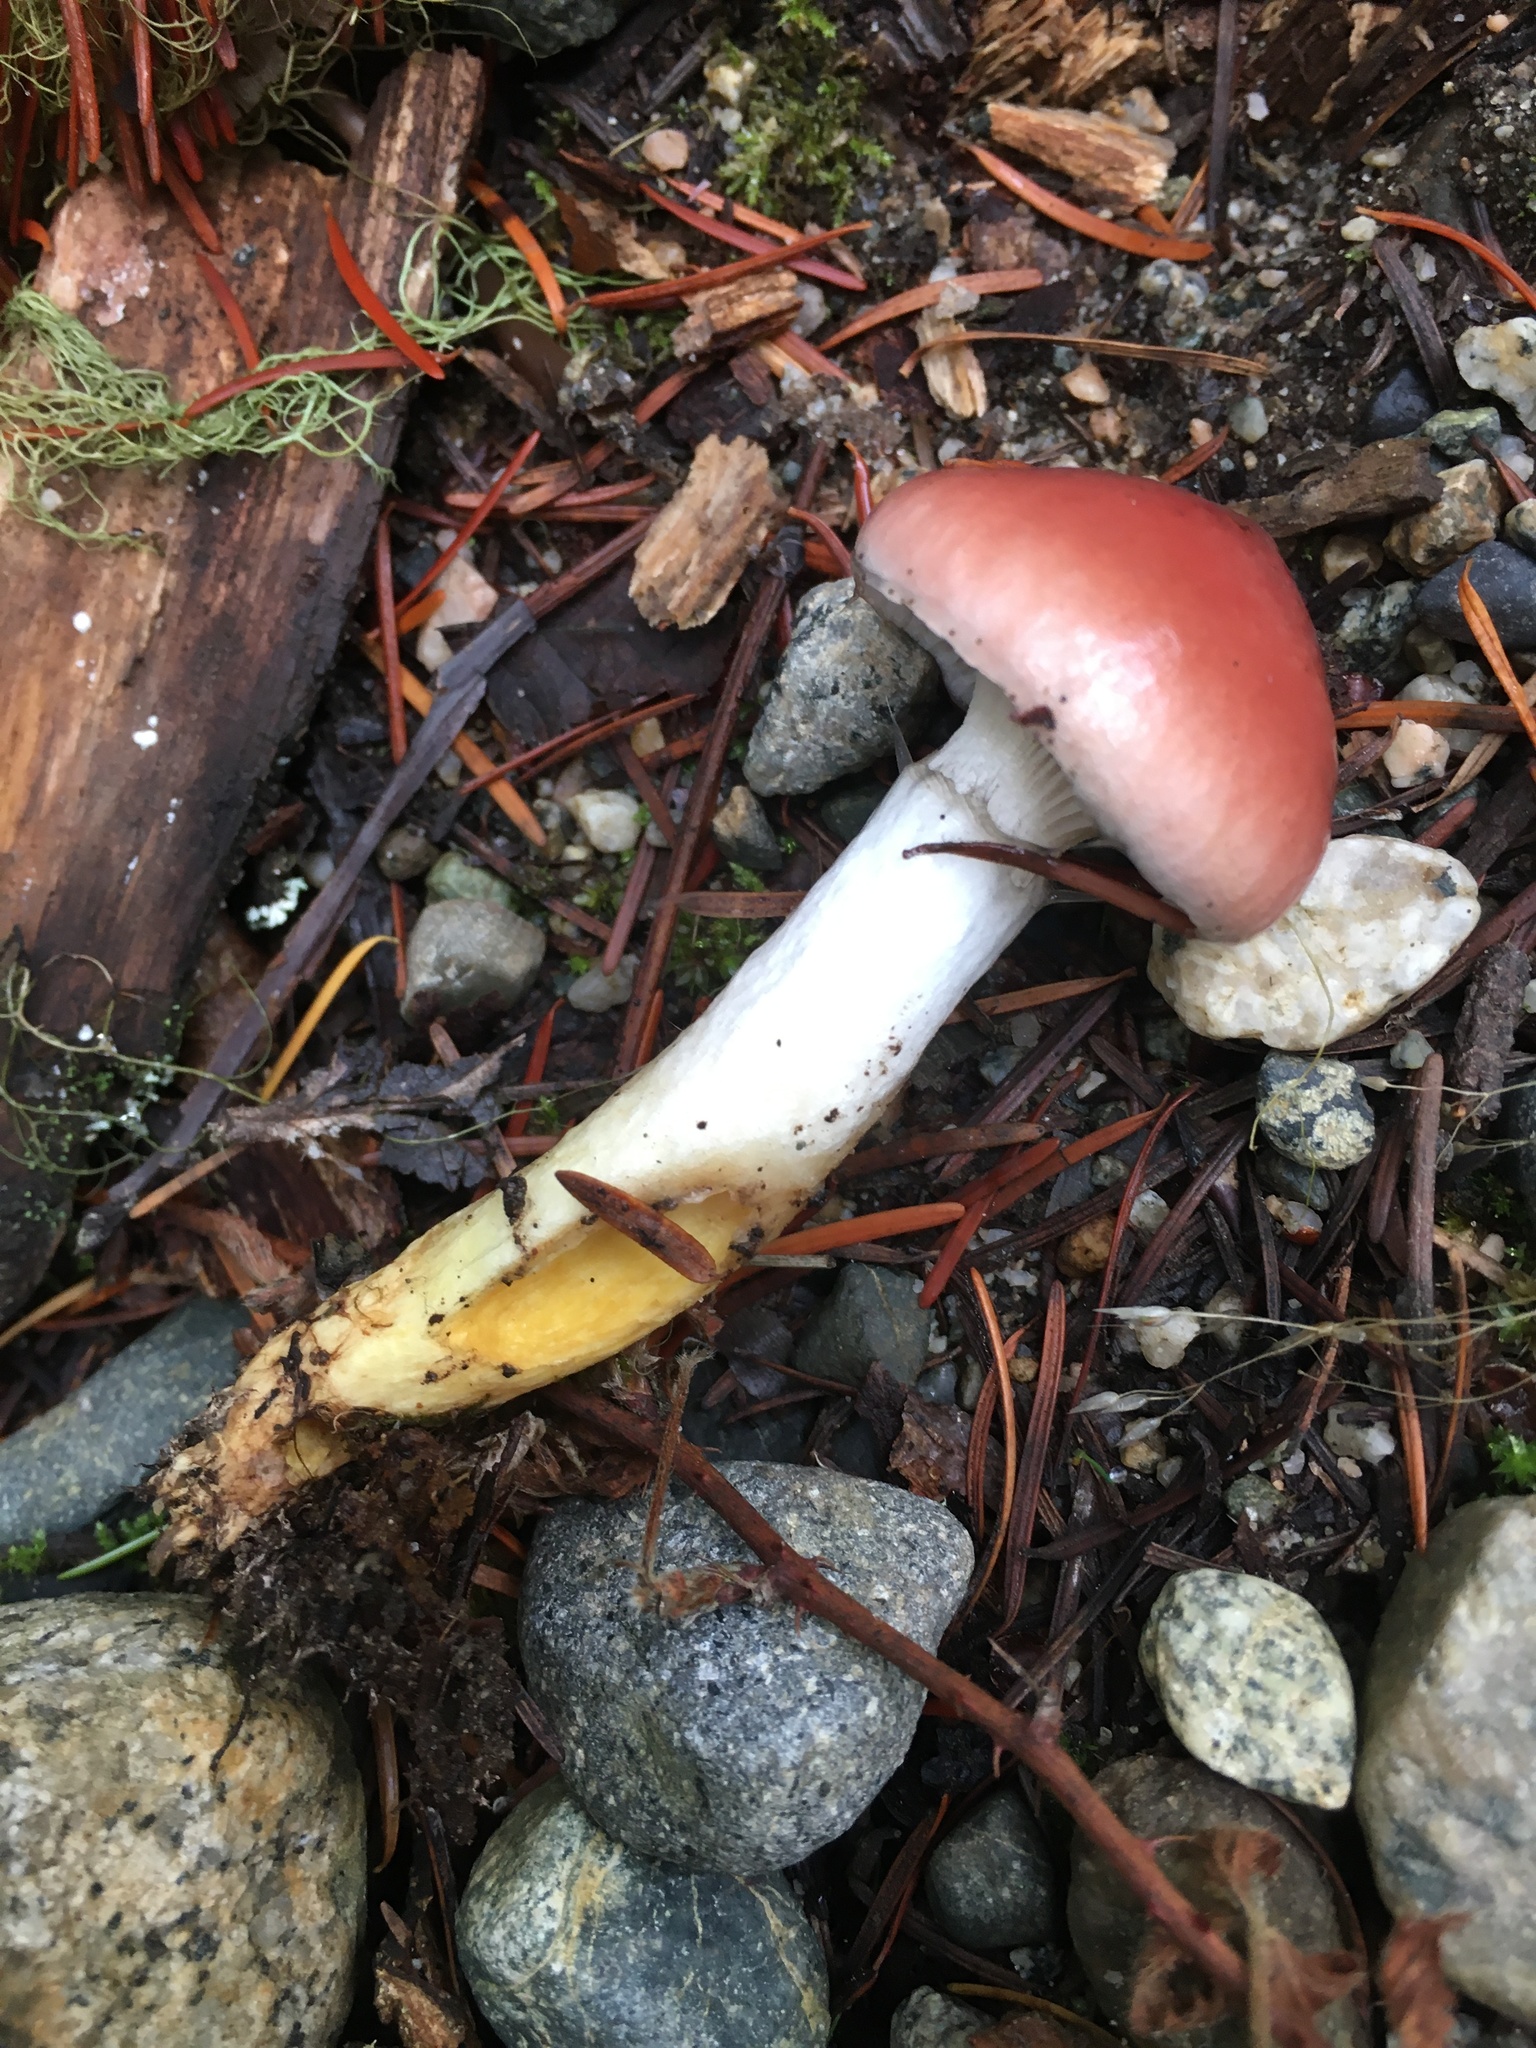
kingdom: Fungi
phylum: Basidiomycota
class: Agaricomycetes
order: Boletales
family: Gomphidiaceae
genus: Gomphidius
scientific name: Gomphidius subroseus
